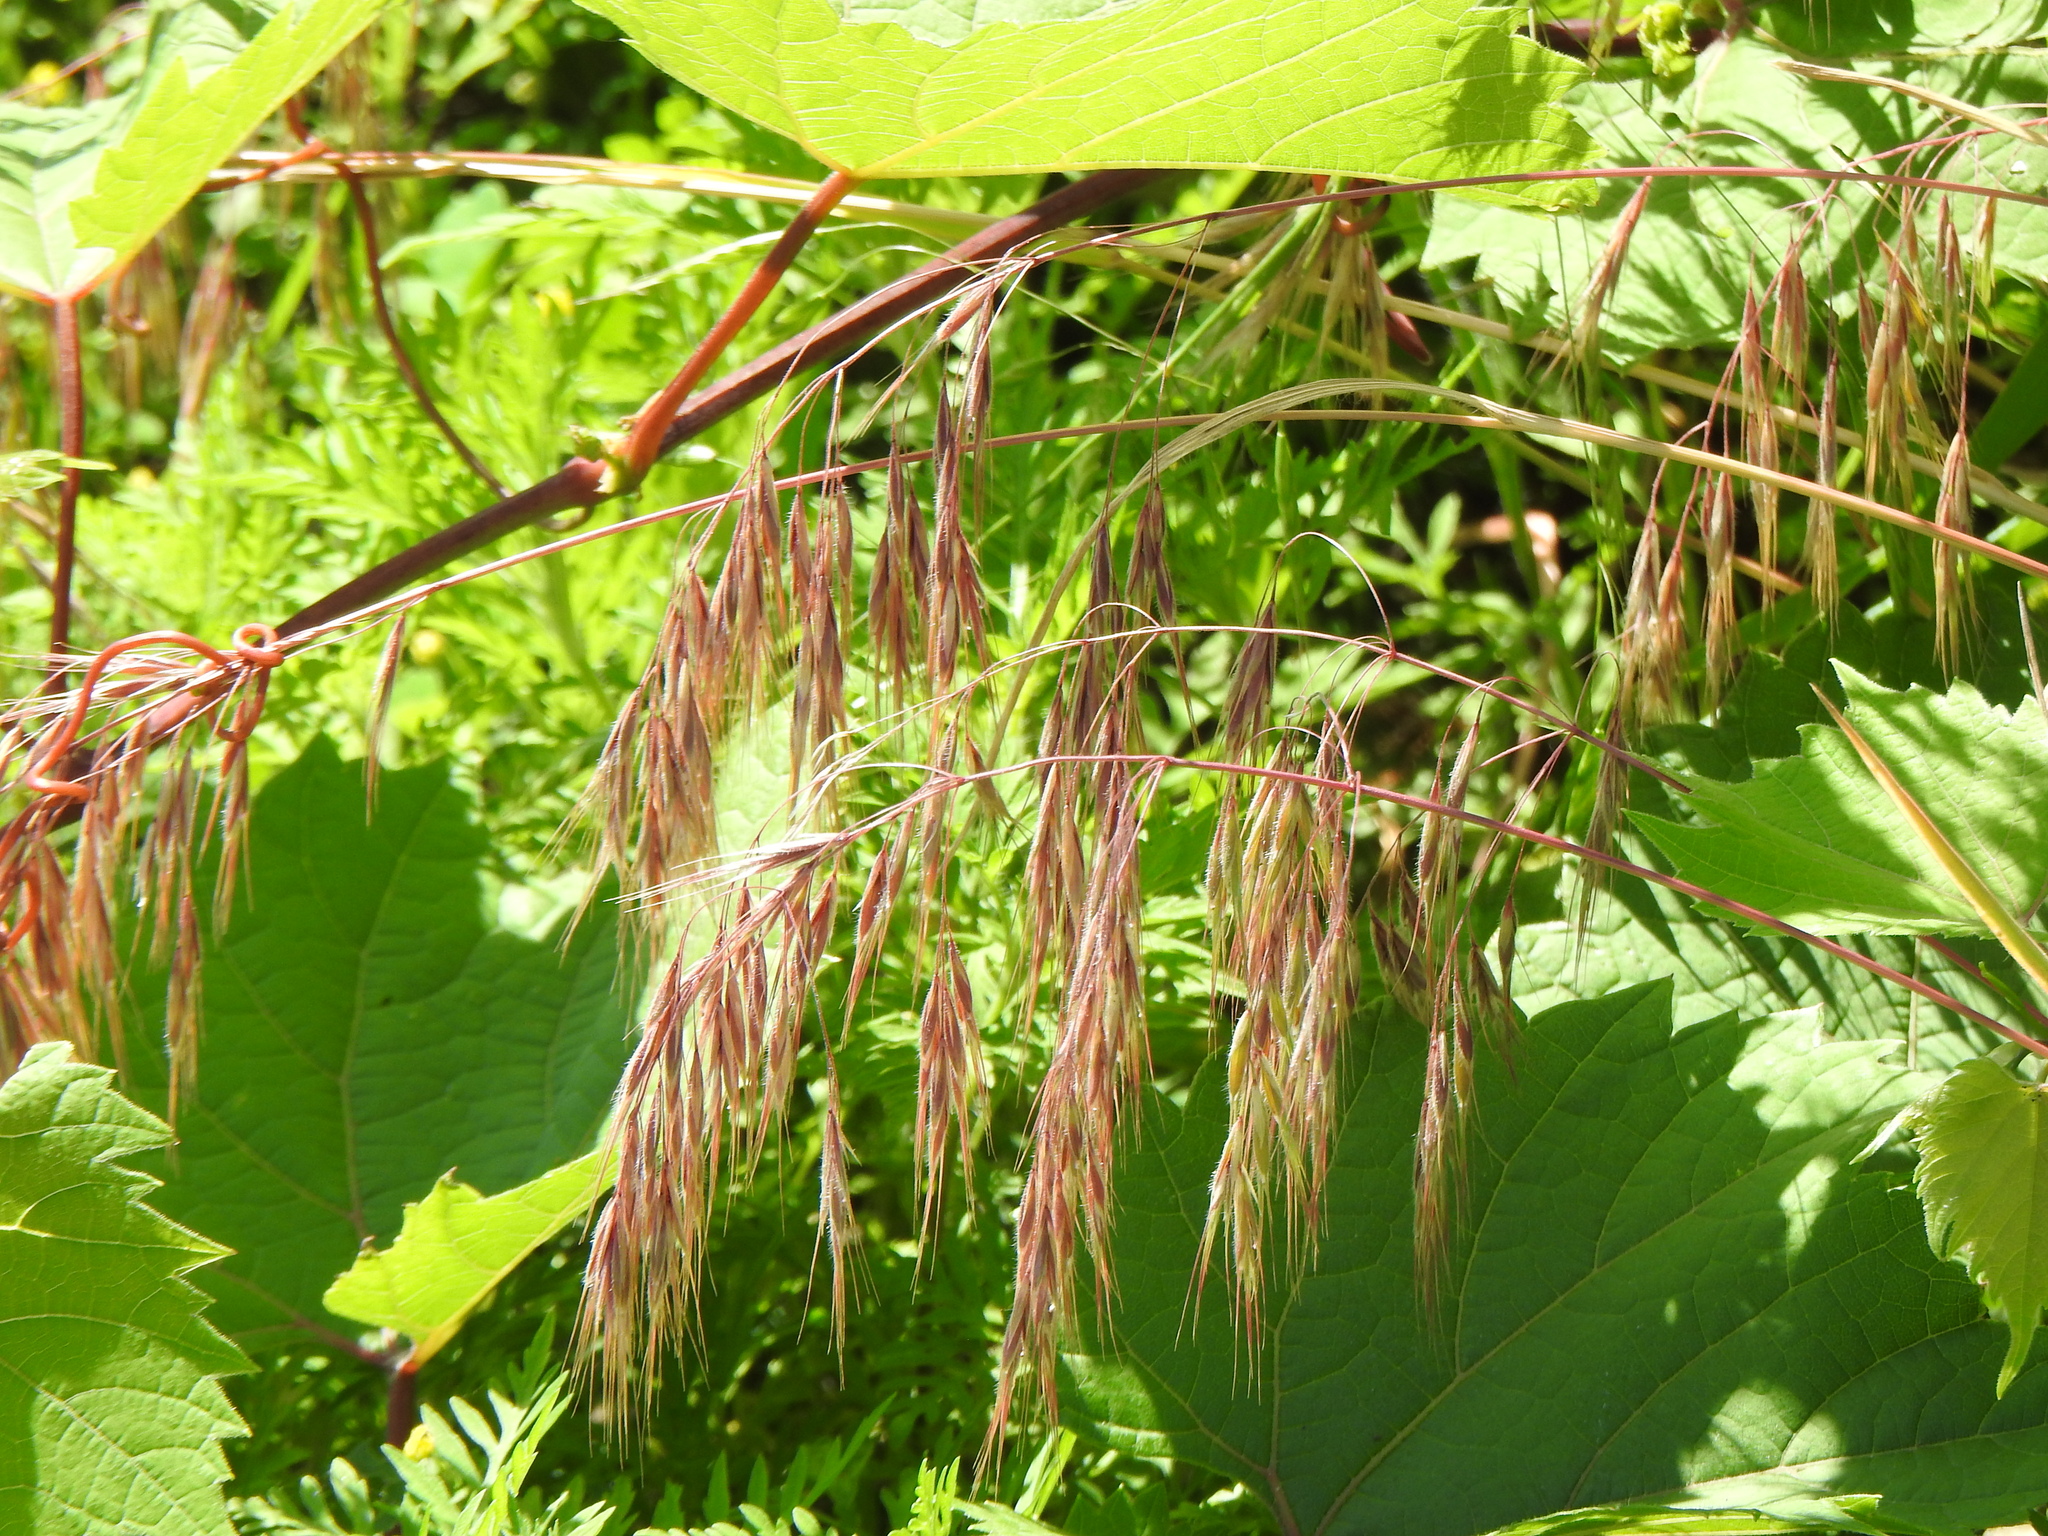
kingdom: Plantae
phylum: Tracheophyta
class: Liliopsida
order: Poales
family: Poaceae
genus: Bromus
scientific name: Bromus tectorum
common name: Cheatgrass
